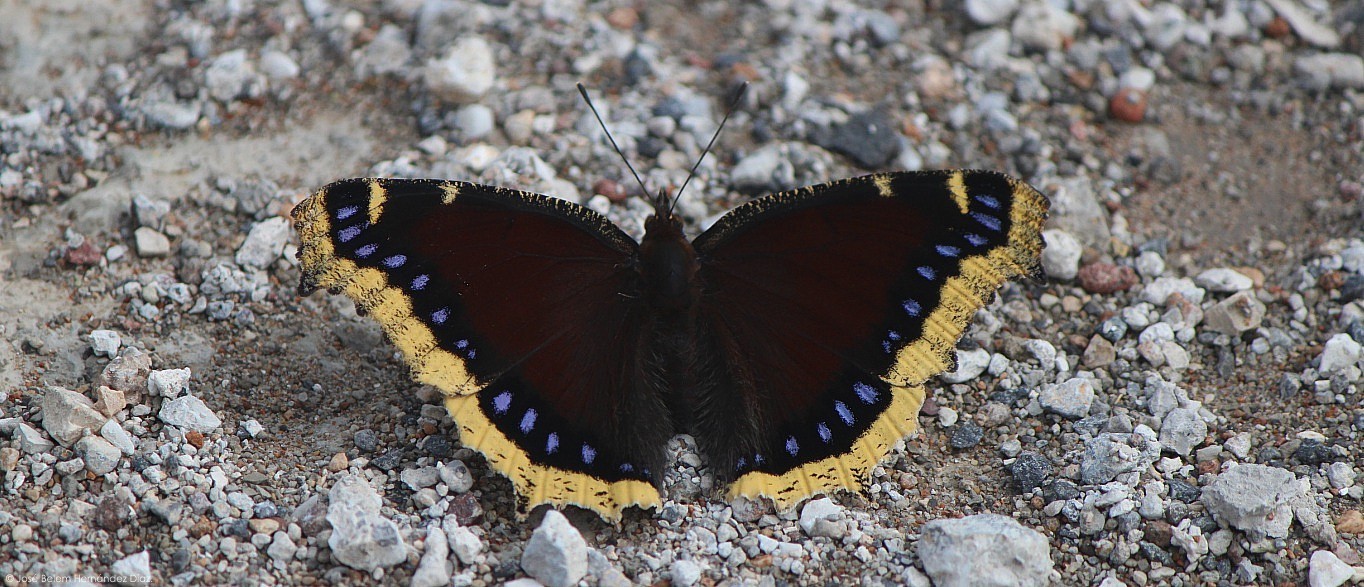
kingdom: Animalia
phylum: Arthropoda
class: Insecta
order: Lepidoptera
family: Nymphalidae
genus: Nymphalis
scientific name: Nymphalis antiopa
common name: Camberwell beauty
